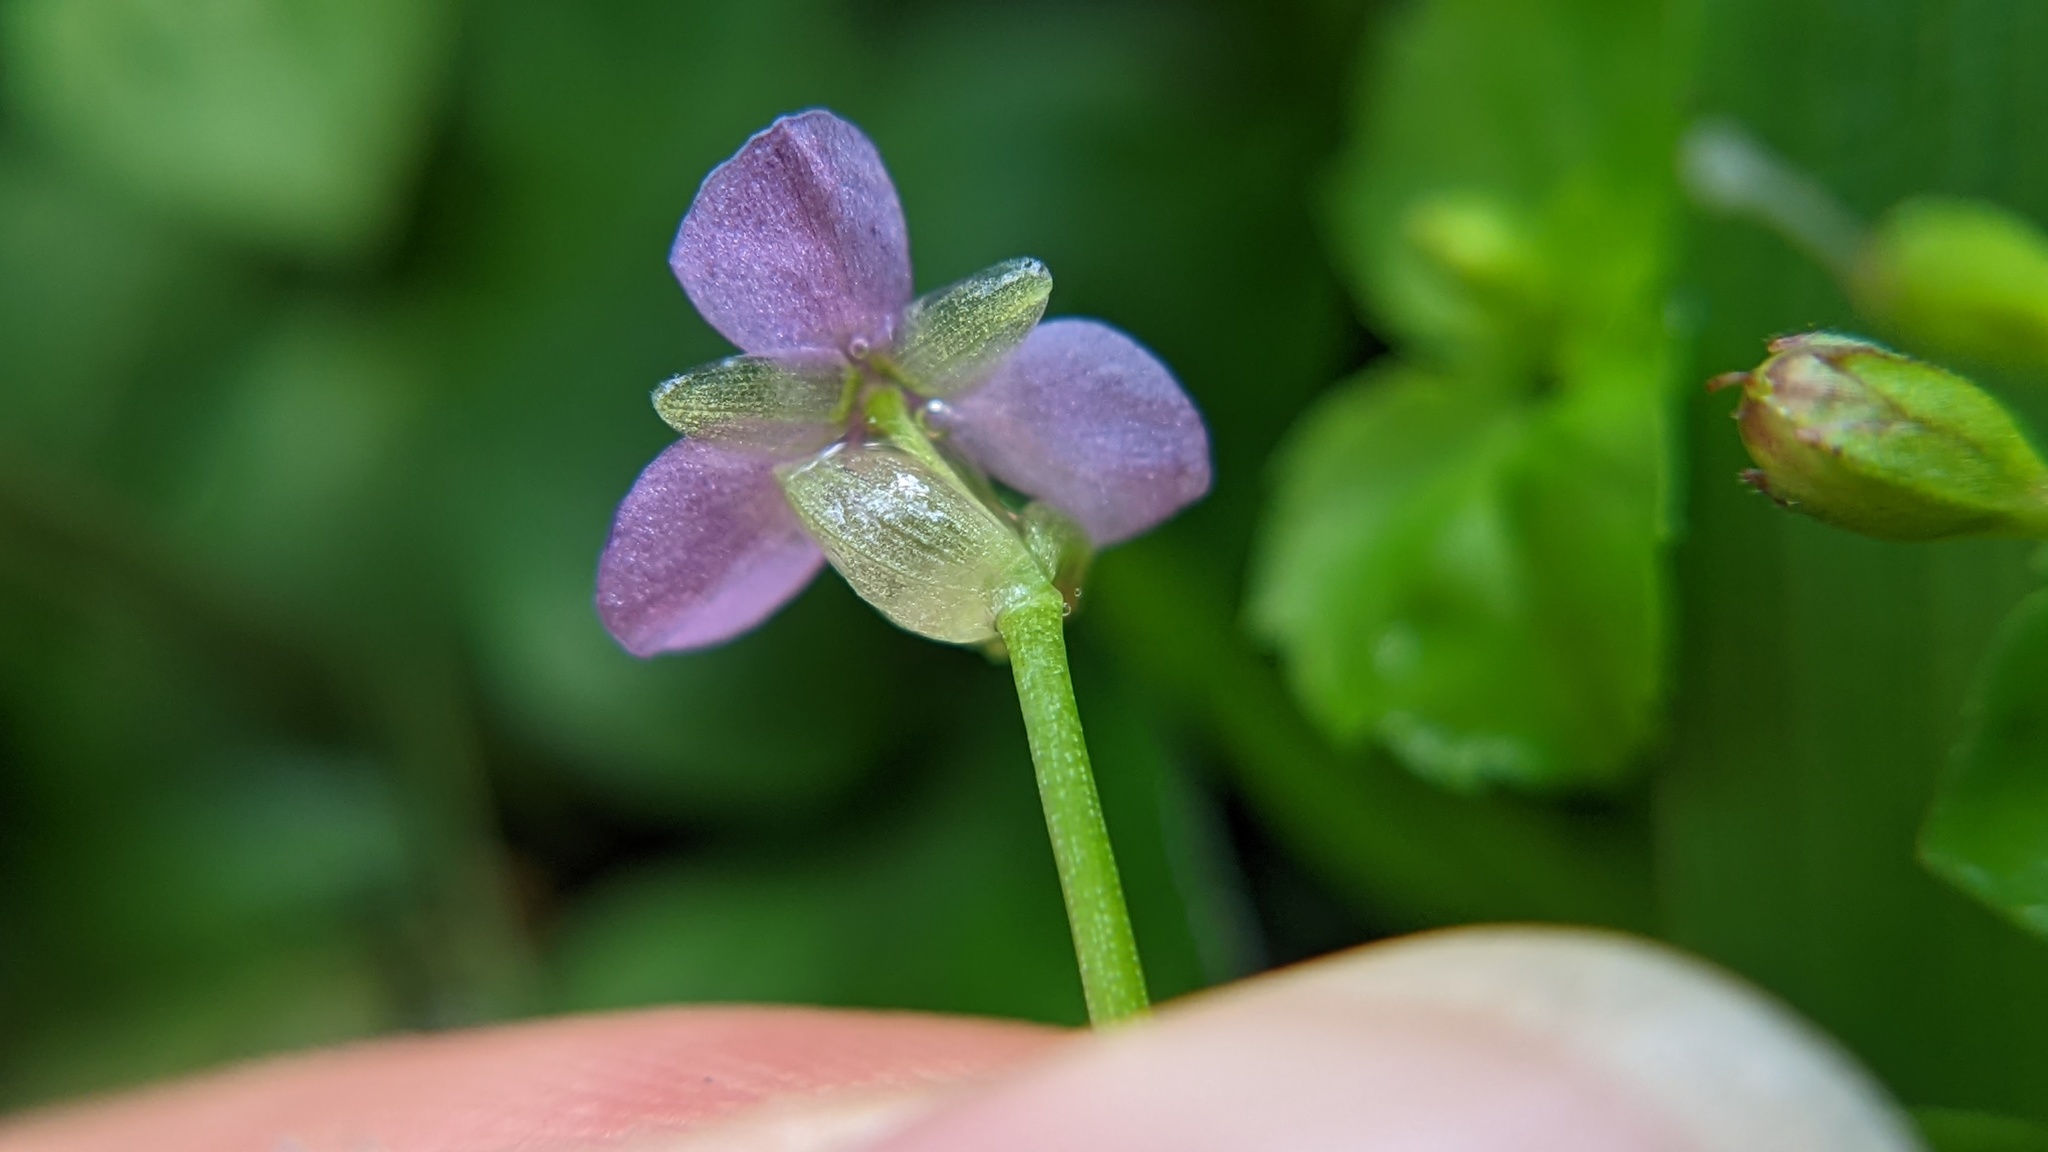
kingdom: Plantae
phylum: Tracheophyta
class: Liliopsida
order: Commelinales
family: Commelinaceae
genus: Murdannia
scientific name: Murdannia nudiflora
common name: Nakedstem dewflower
